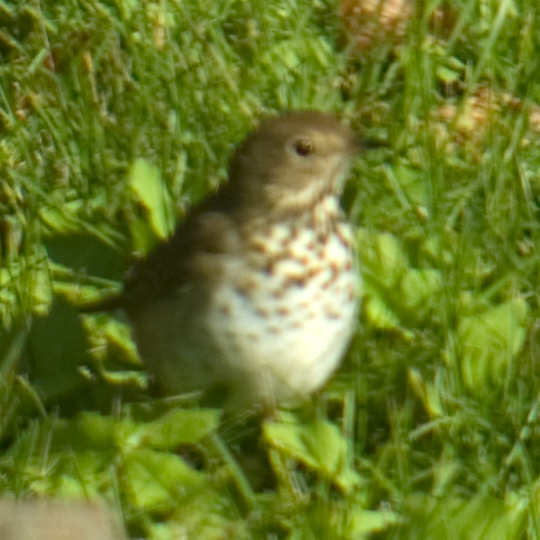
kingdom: Animalia
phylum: Chordata
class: Aves
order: Passeriformes
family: Turdidae
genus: Catharus
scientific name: Catharus guttatus
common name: Hermit thrush
